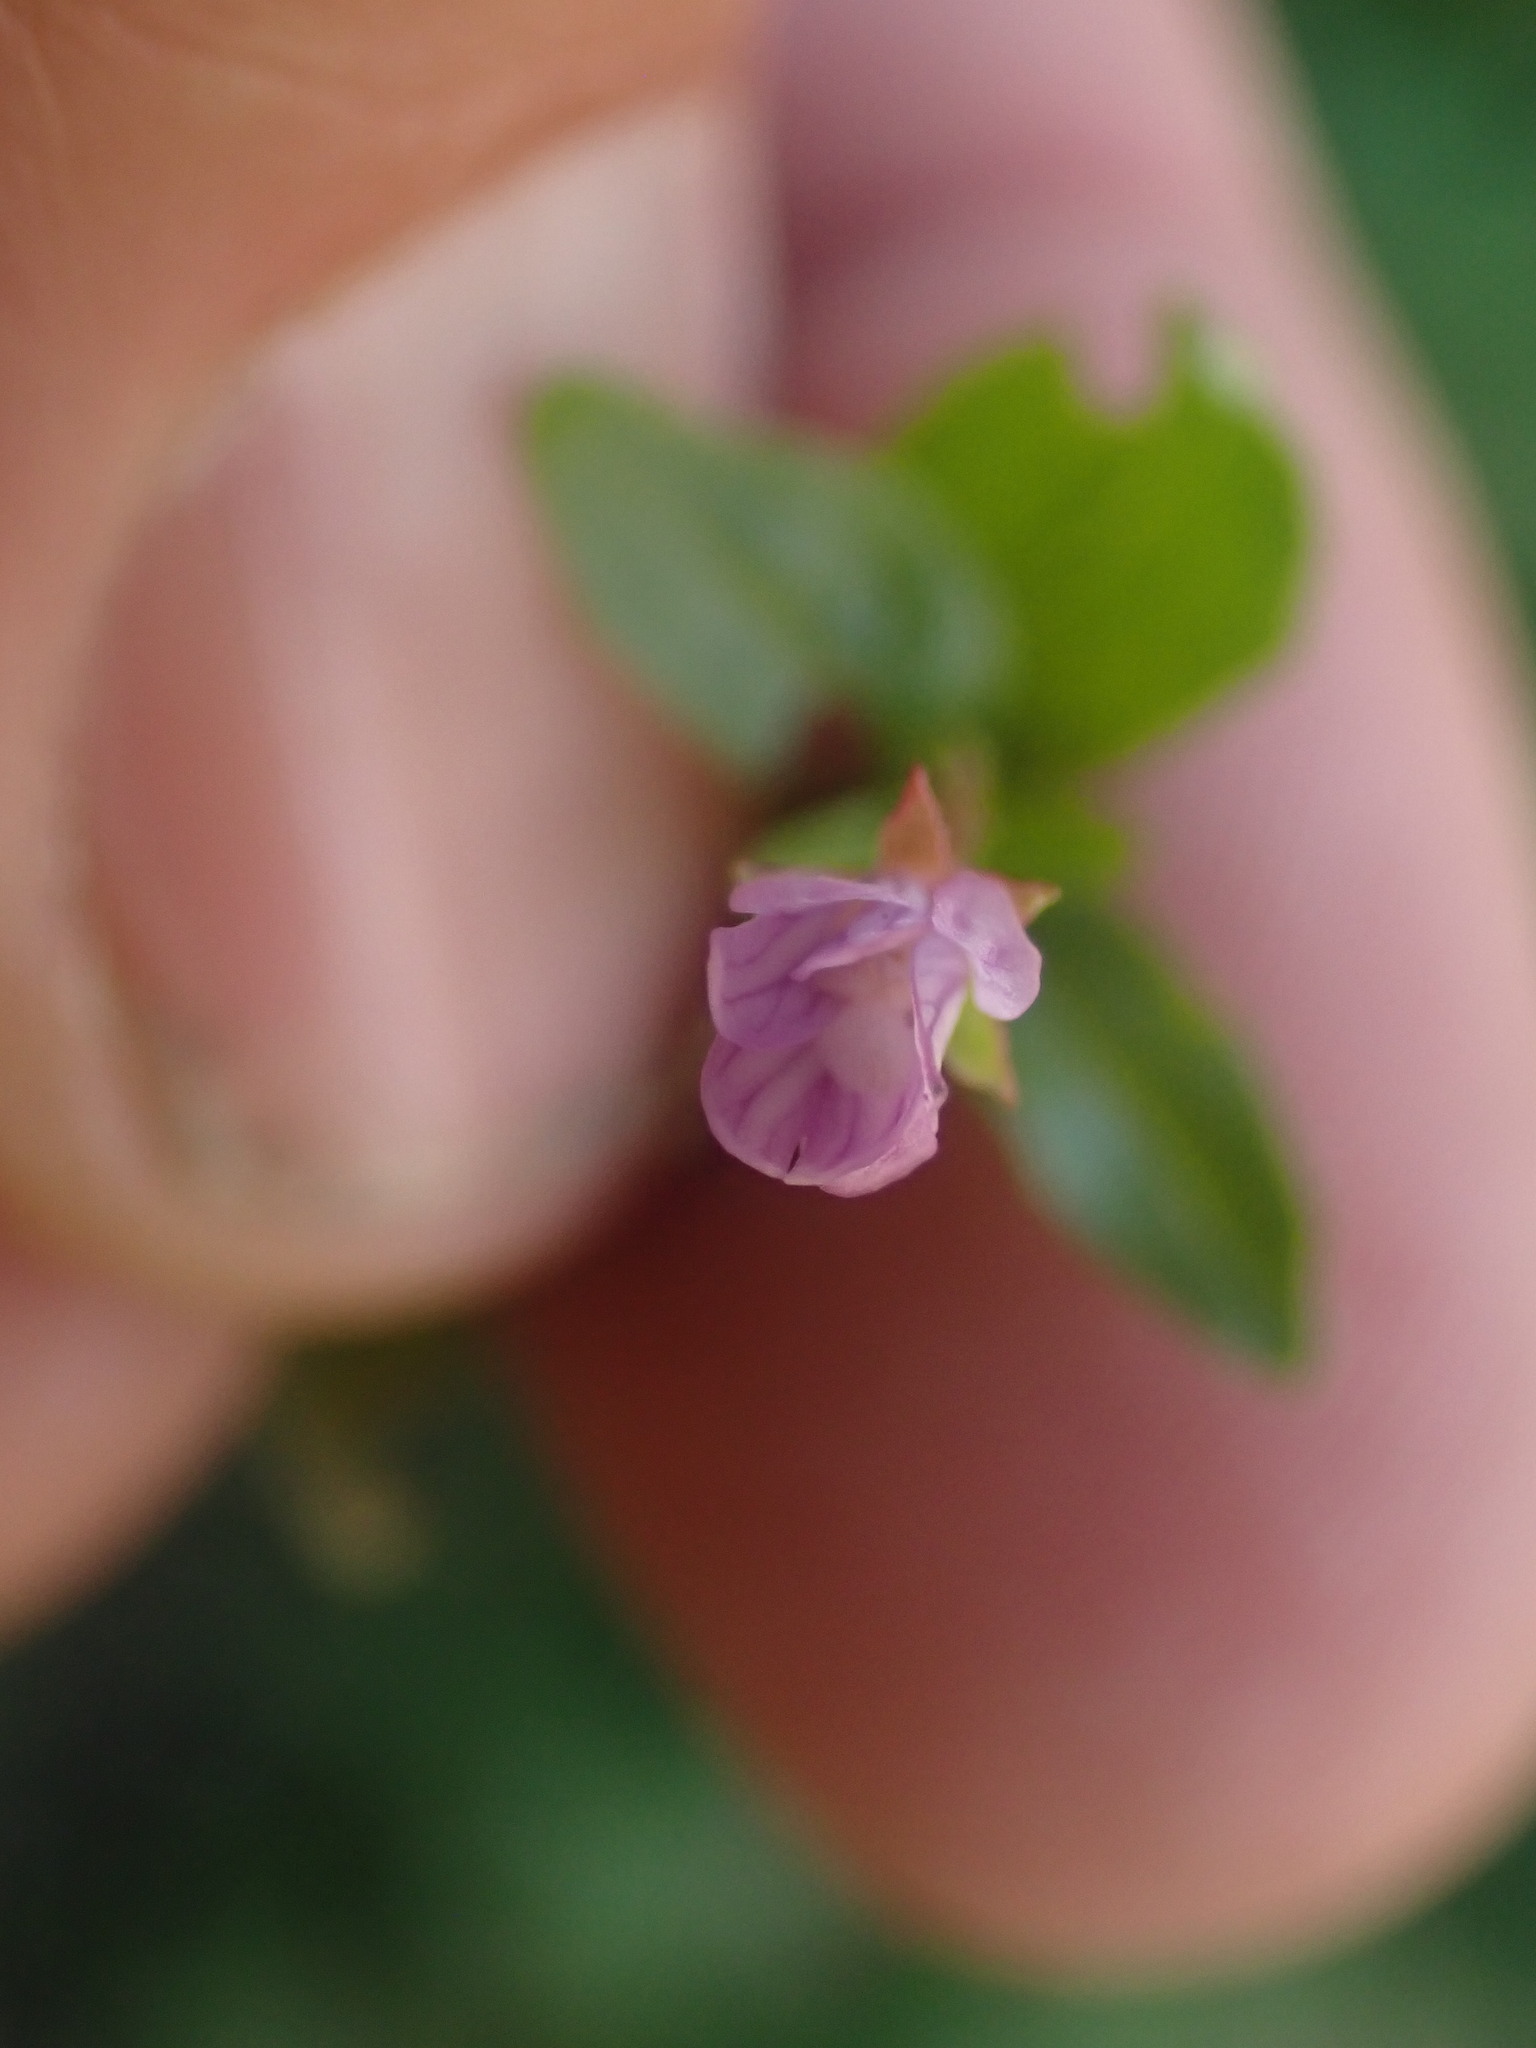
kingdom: Plantae
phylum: Tracheophyta
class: Magnoliopsida
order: Myrtales
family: Onagraceae
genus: Epilobium
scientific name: Epilobium anagallidifolium
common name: Alpine willowherb
